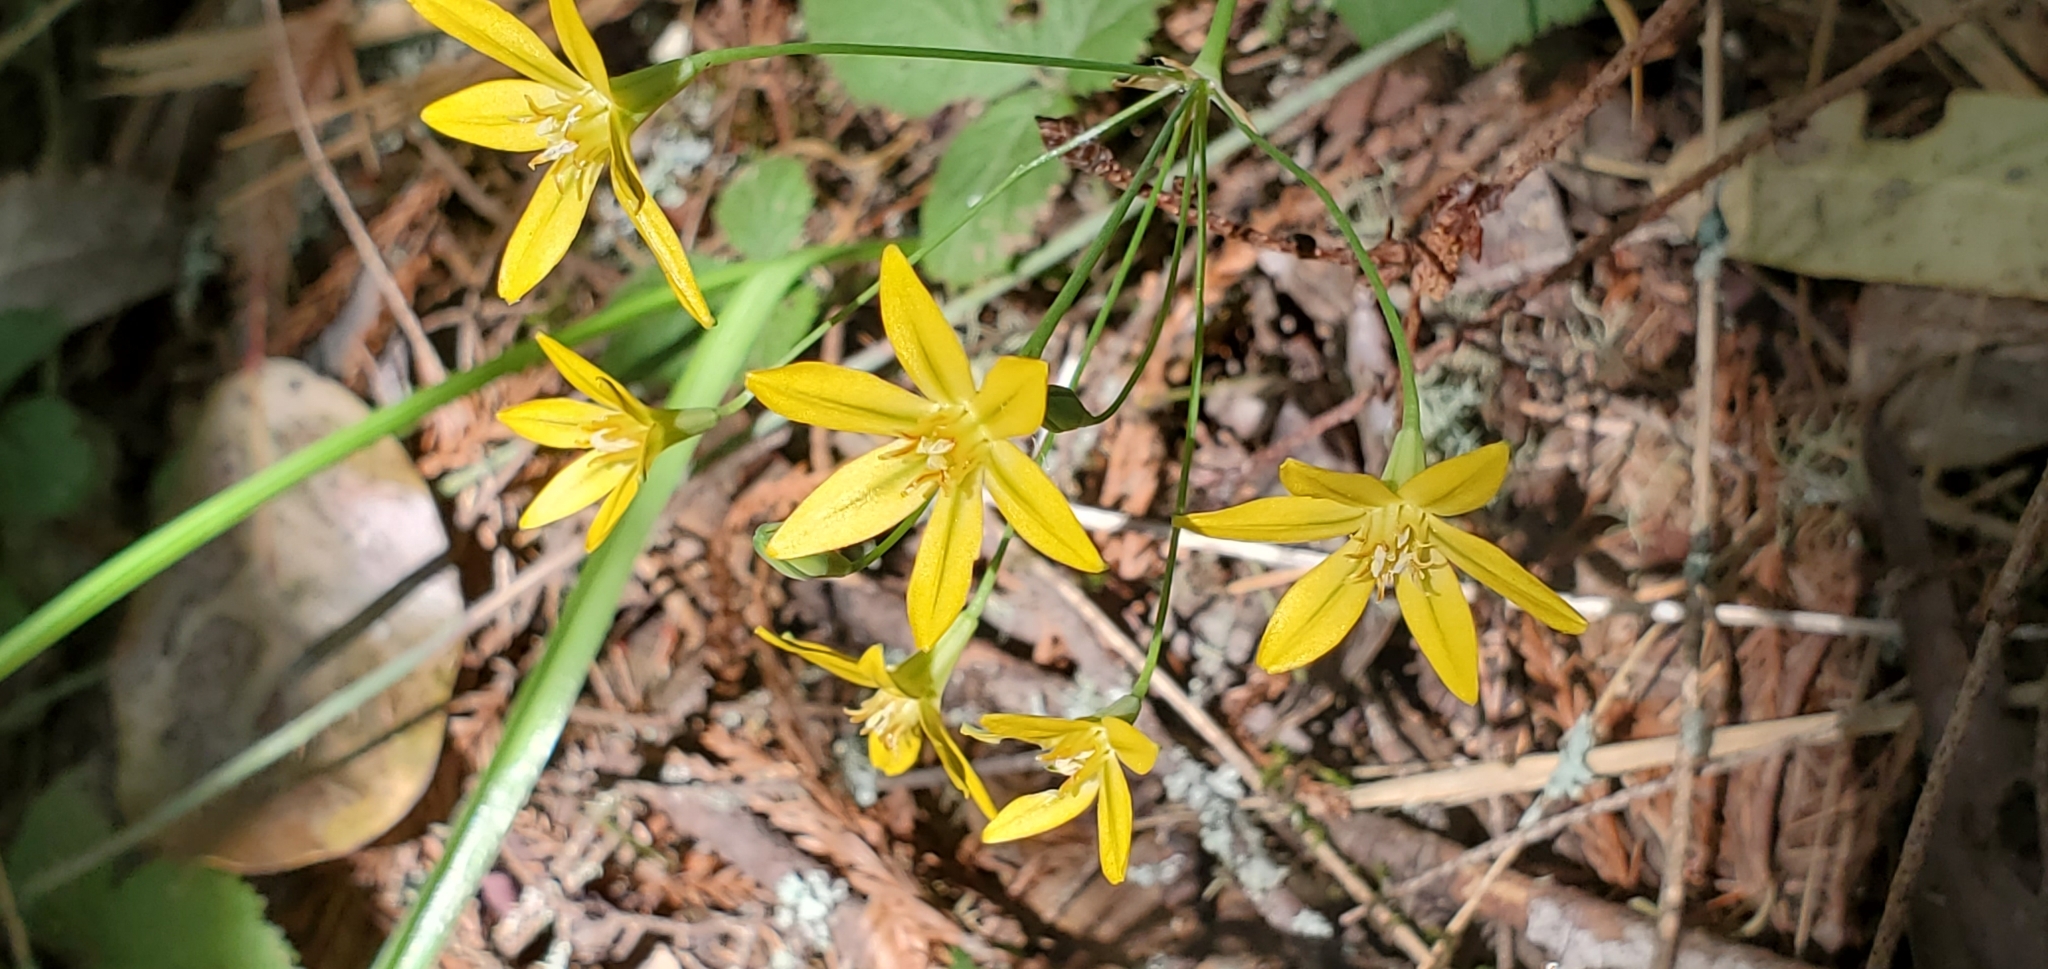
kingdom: Plantae
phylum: Tracheophyta
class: Liliopsida
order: Asparagales
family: Asparagaceae
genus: Triteleia
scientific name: Triteleia ixioides
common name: Yellow-brodiaea
